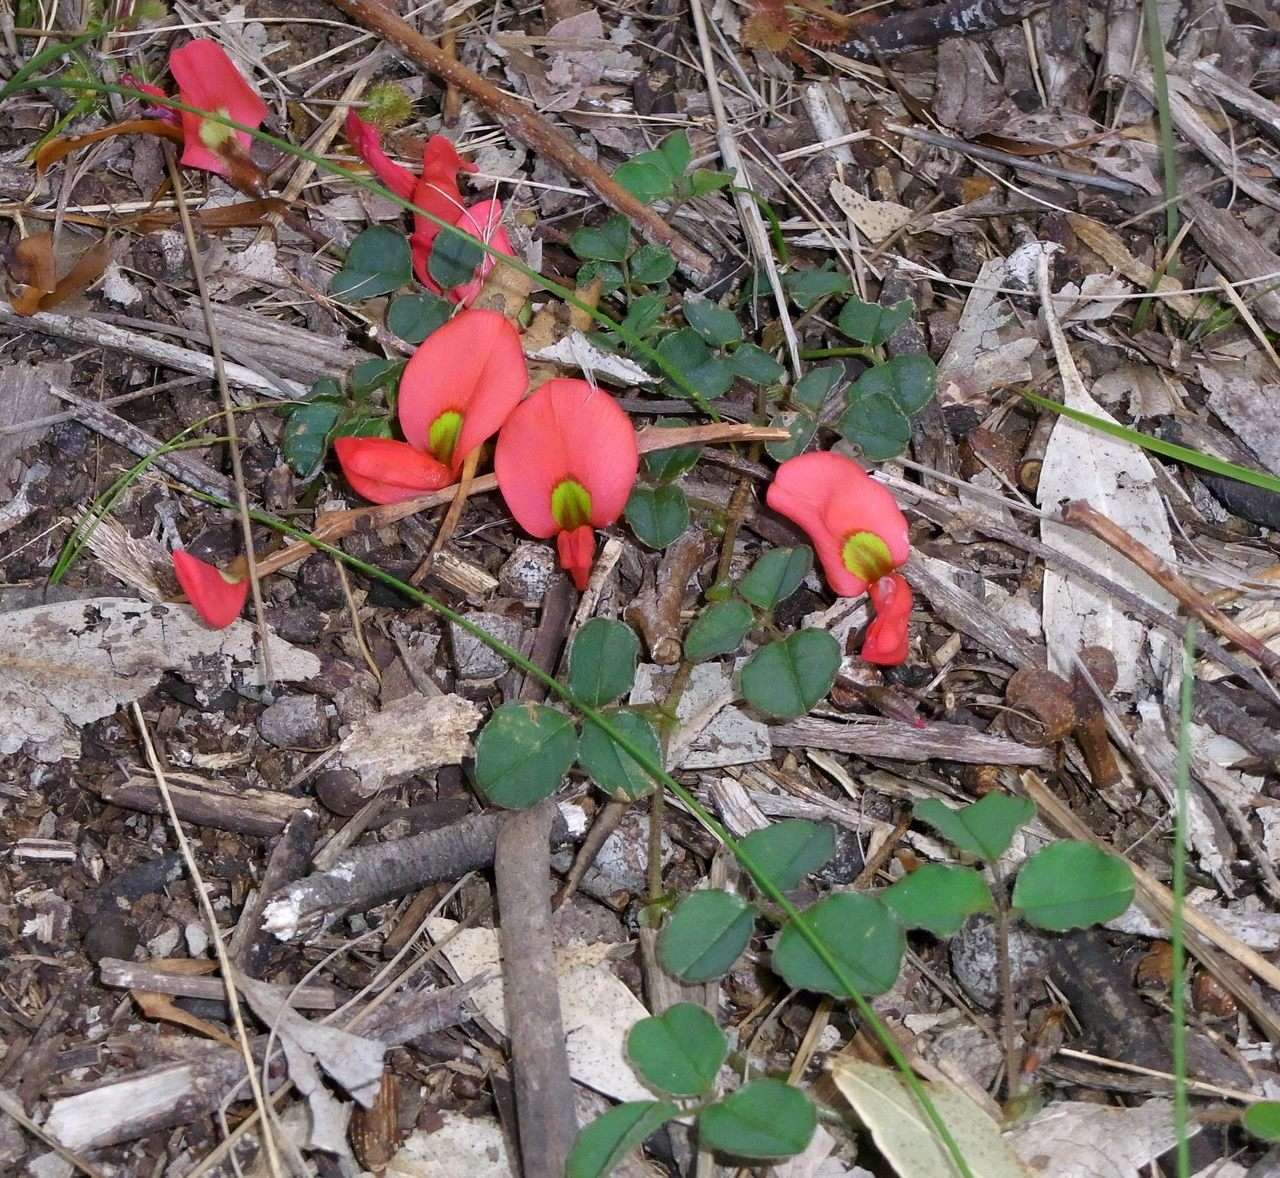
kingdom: Plantae
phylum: Tracheophyta
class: Magnoliopsida
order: Fabales
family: Fabaceae
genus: Kennedia
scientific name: Kennedia prostrata
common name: Running-postman
